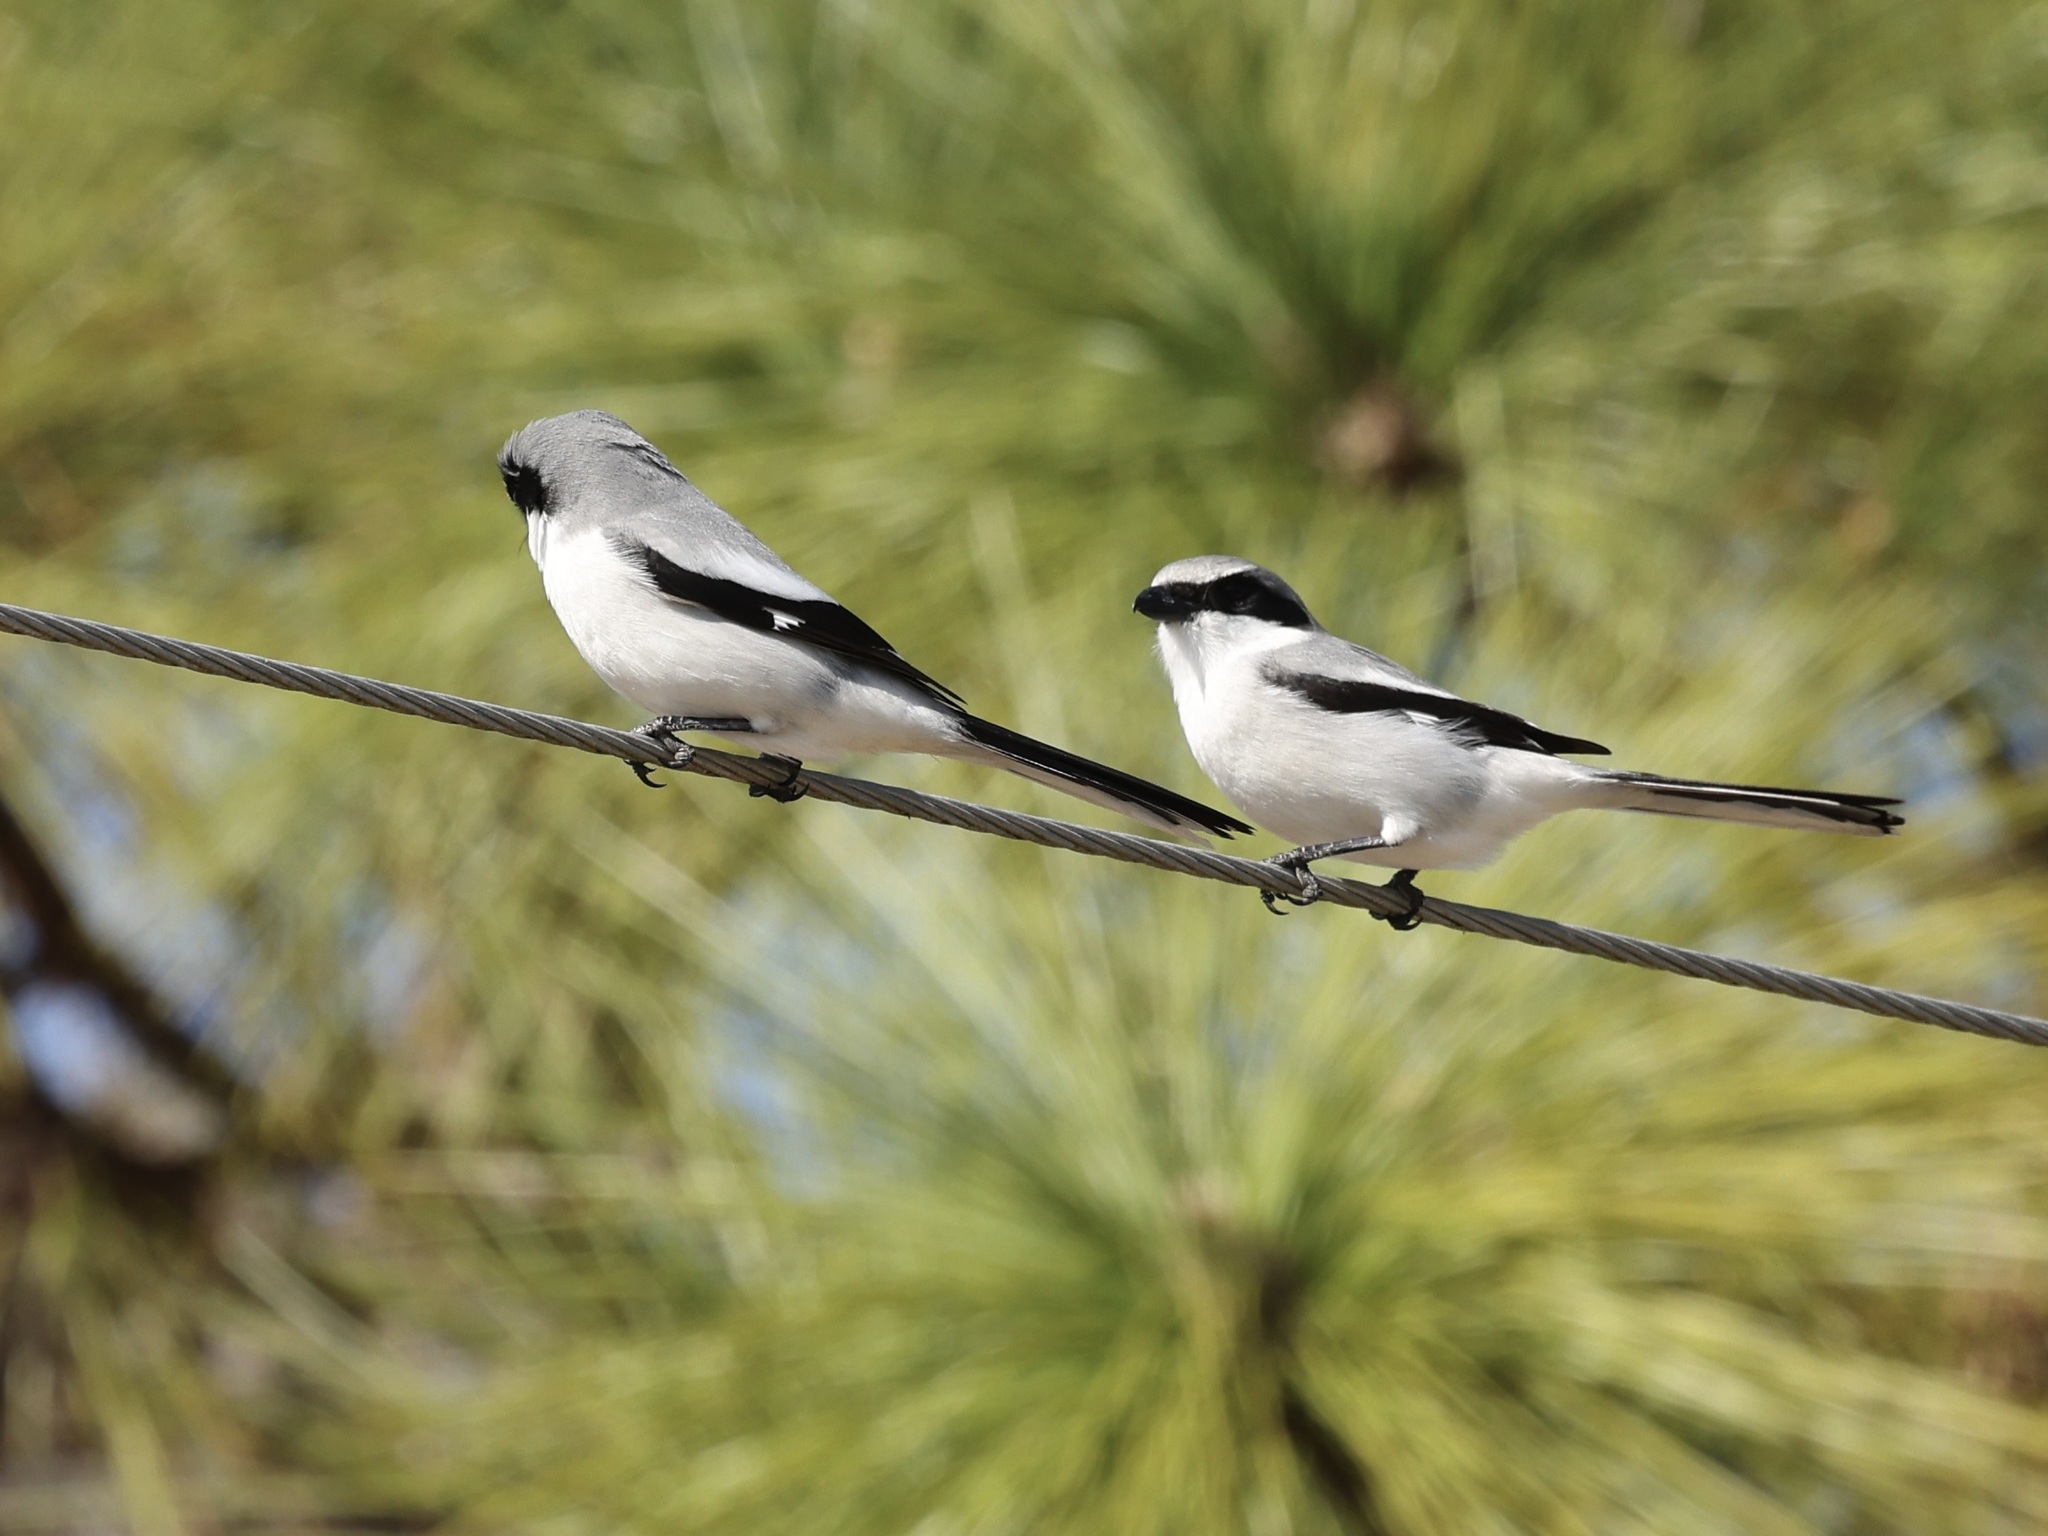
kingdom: Animalia
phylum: Chordata
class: Aves
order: Passeriformes
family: Laniidae
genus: Lanius
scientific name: Lanius ludovicianus
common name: Loggerhead shrike
